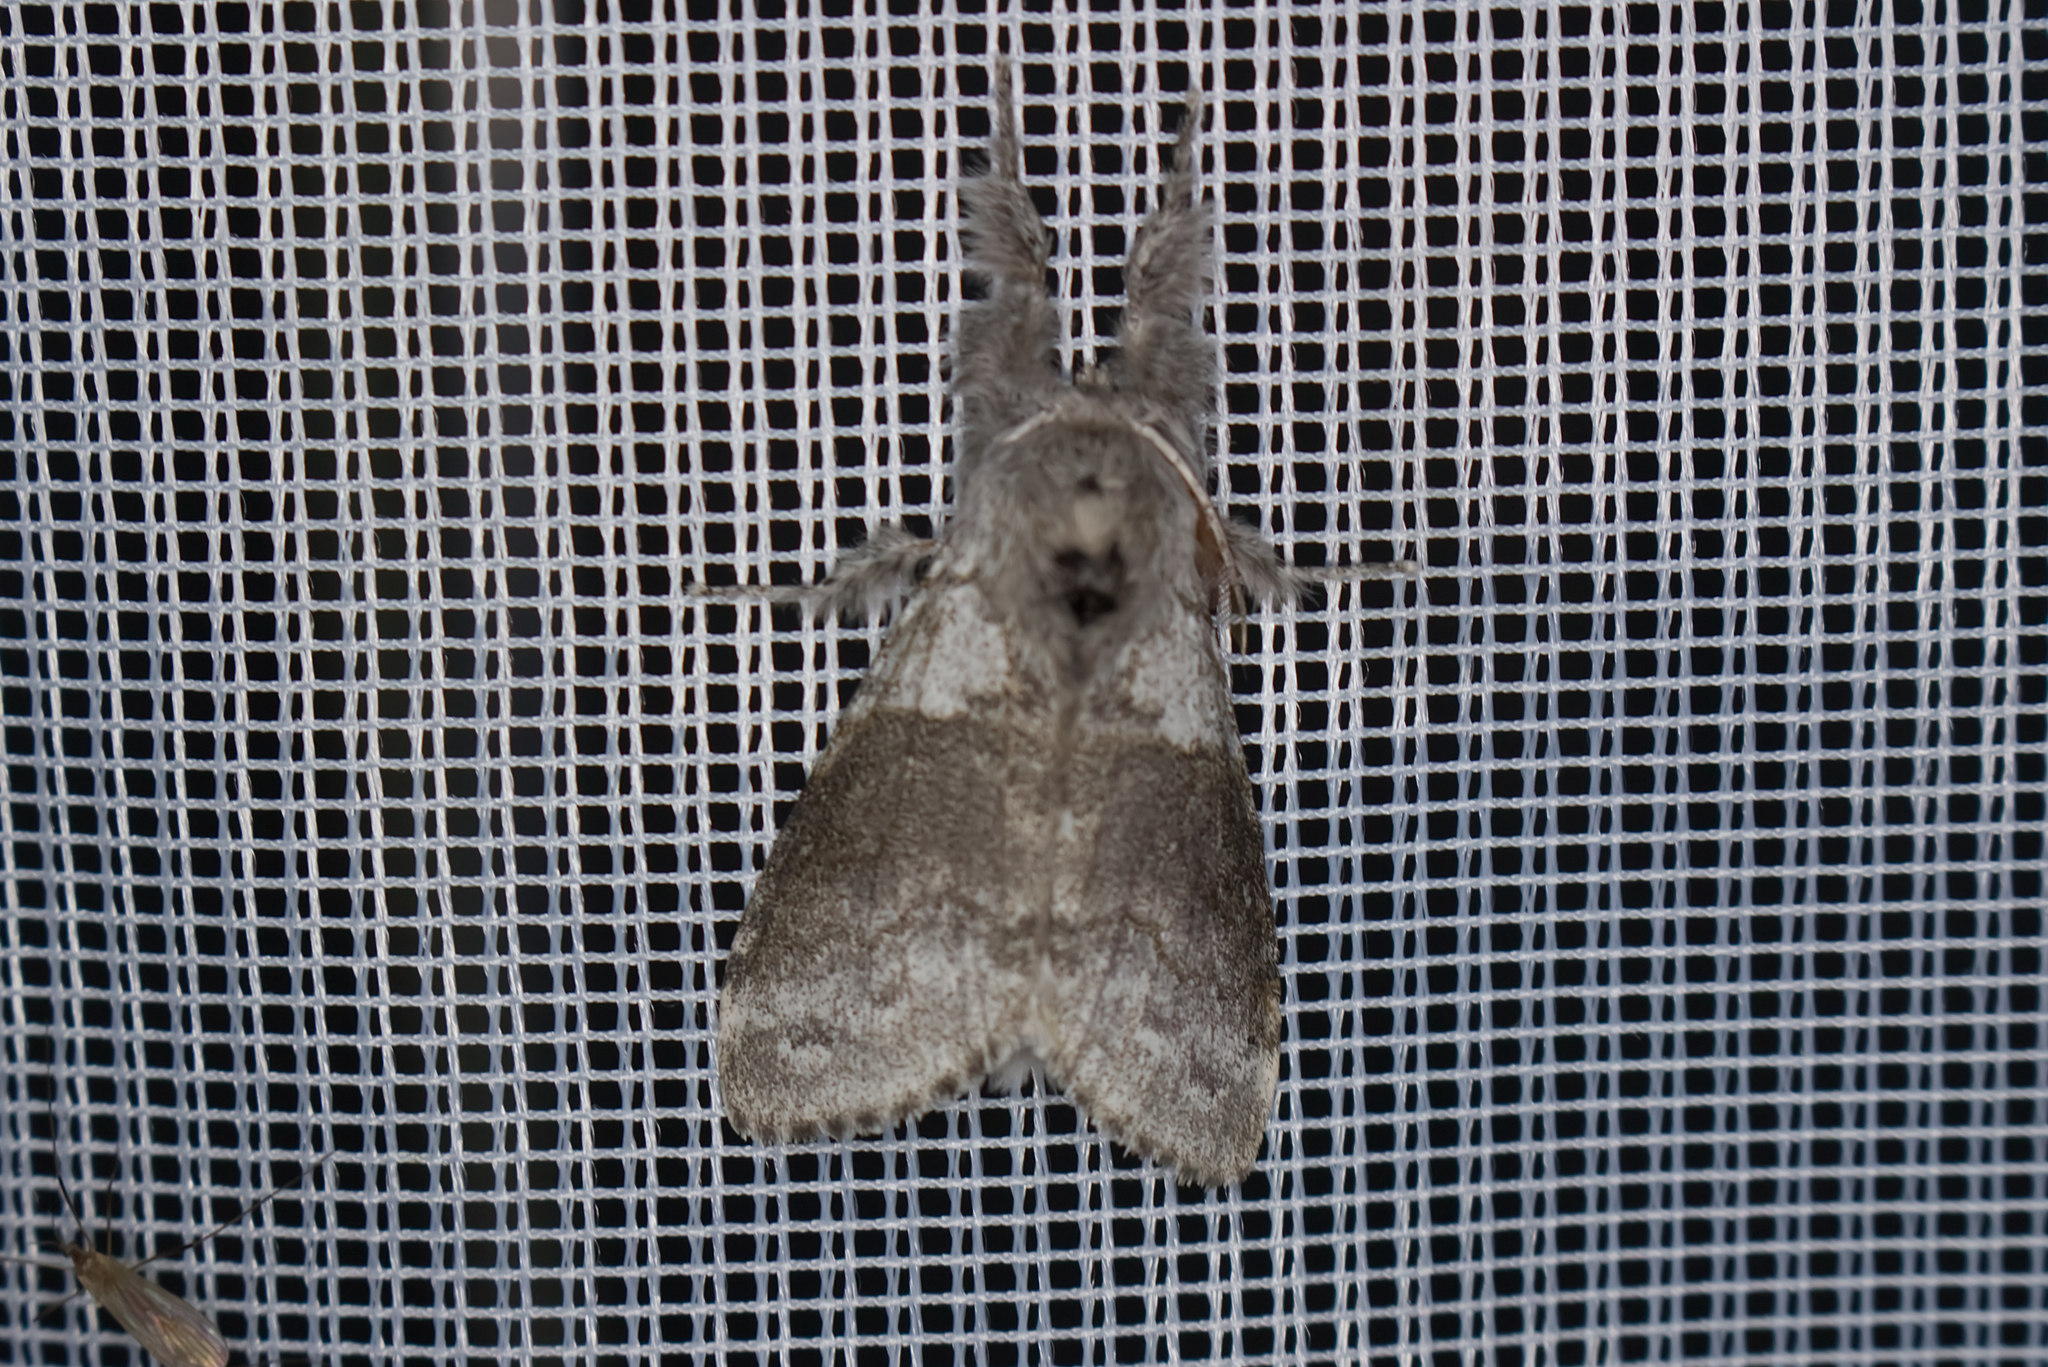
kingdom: Animalia
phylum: Arthropoda
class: Insecta
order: Lepidoptera
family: Erebidae
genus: Calliteara
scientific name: Calliteara pudibunda
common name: Pale tussock
